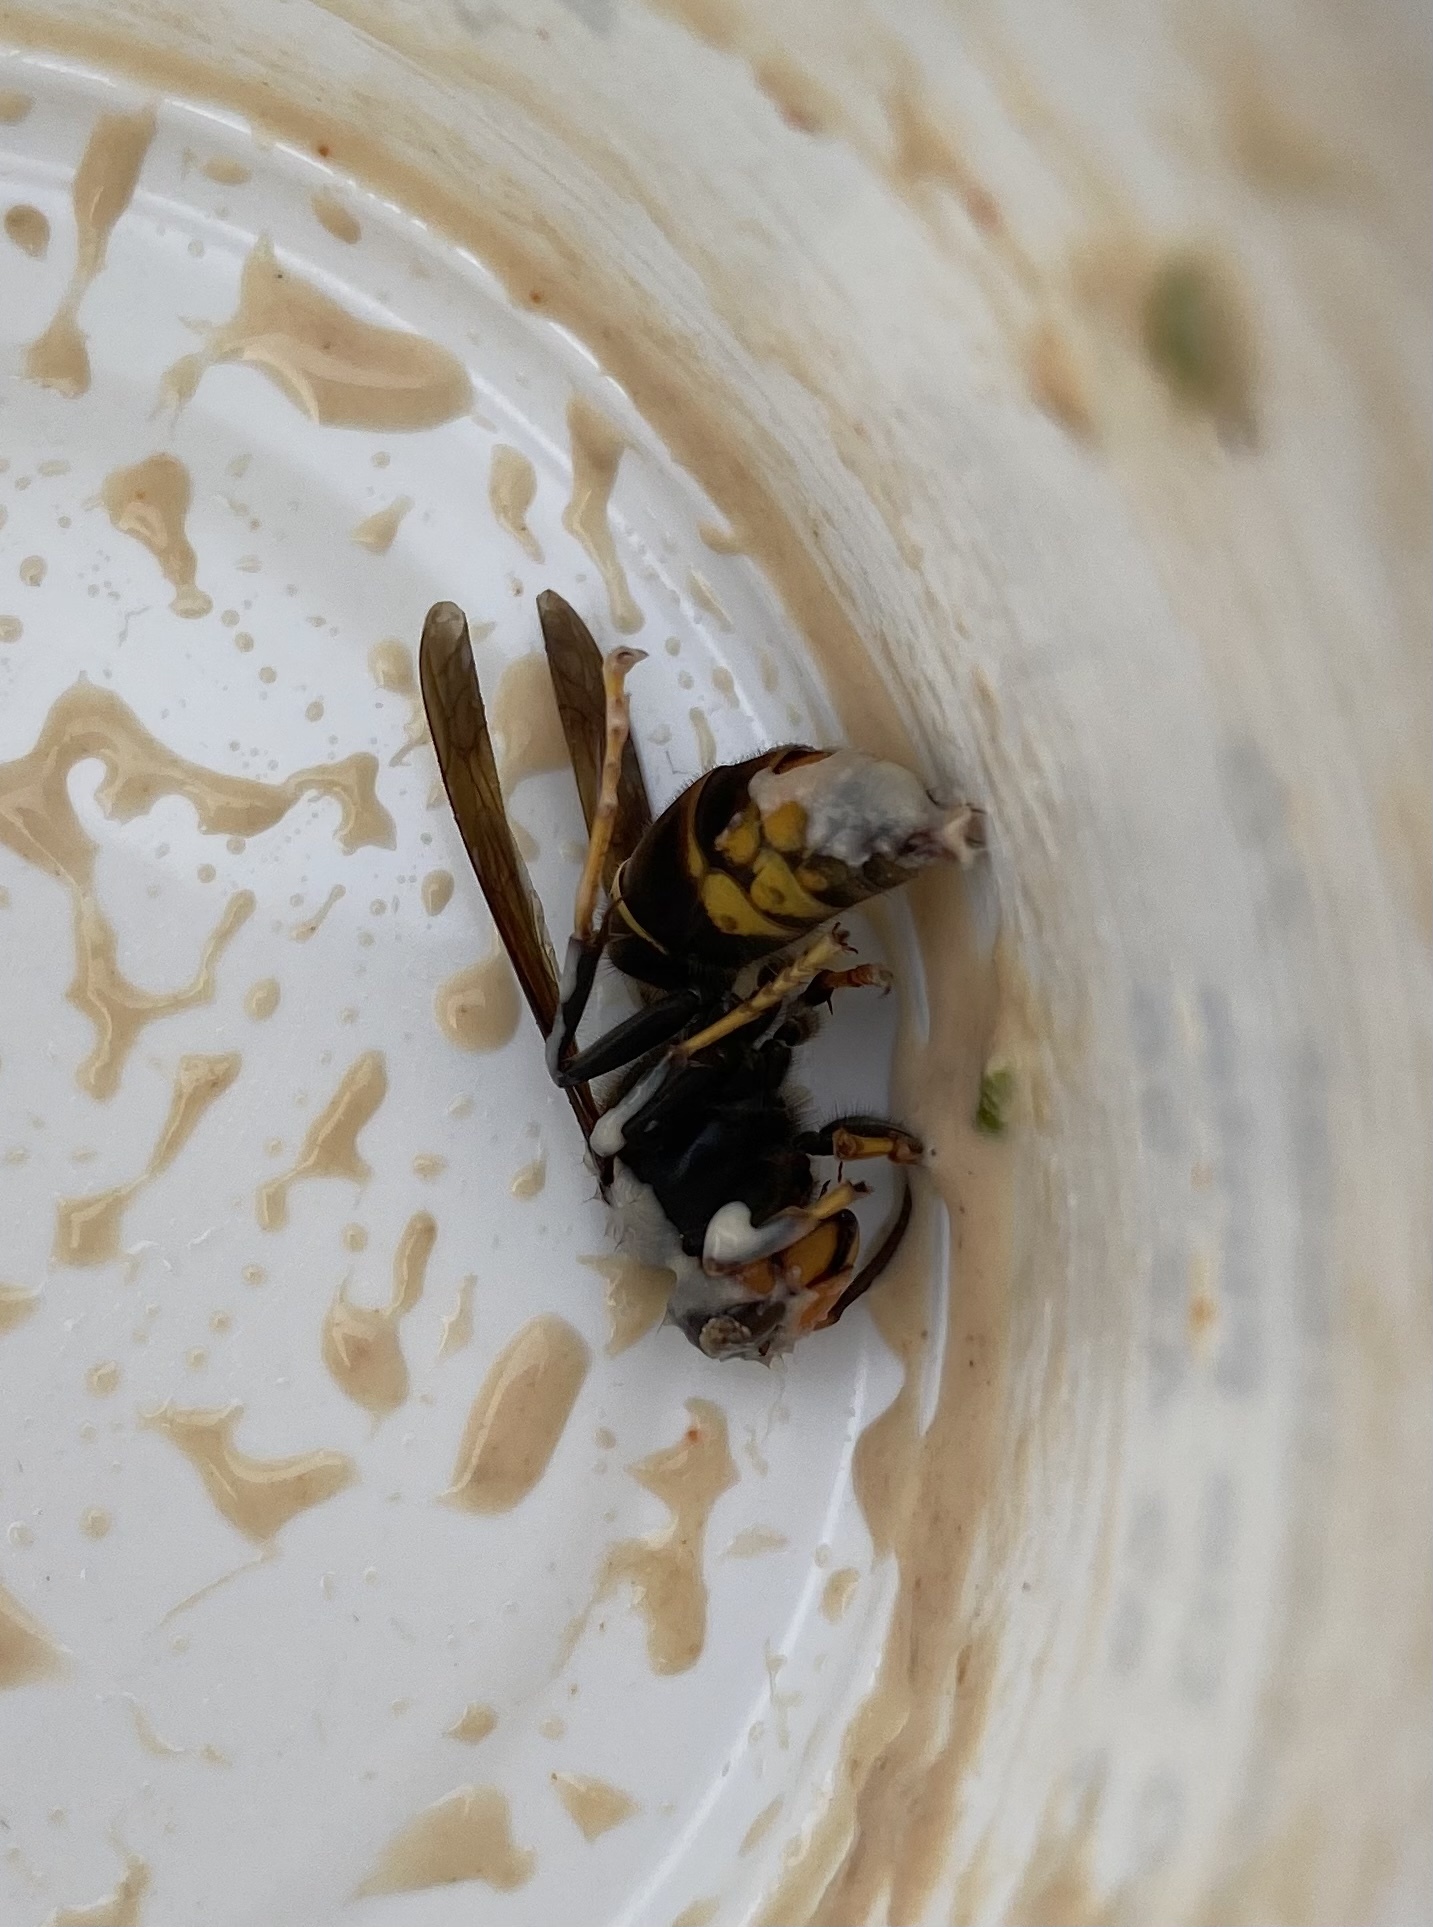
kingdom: Animalia
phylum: Arthropoda
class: Insecta
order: Hymenoptera
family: Vespidae
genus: Vespa
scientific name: Vespa velutina
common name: Asian hornet
